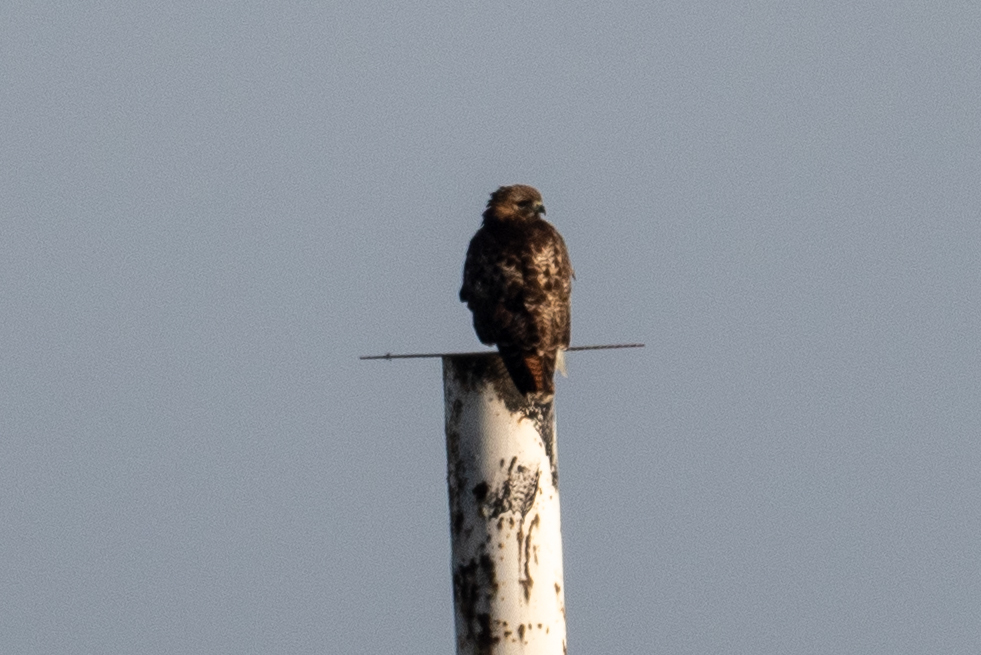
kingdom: Animalia
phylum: Chordata
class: Aves
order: Accipitriformes
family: Accipitridae
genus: Buteo
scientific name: Buteo jamaicensis
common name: Red-tailed hawk
